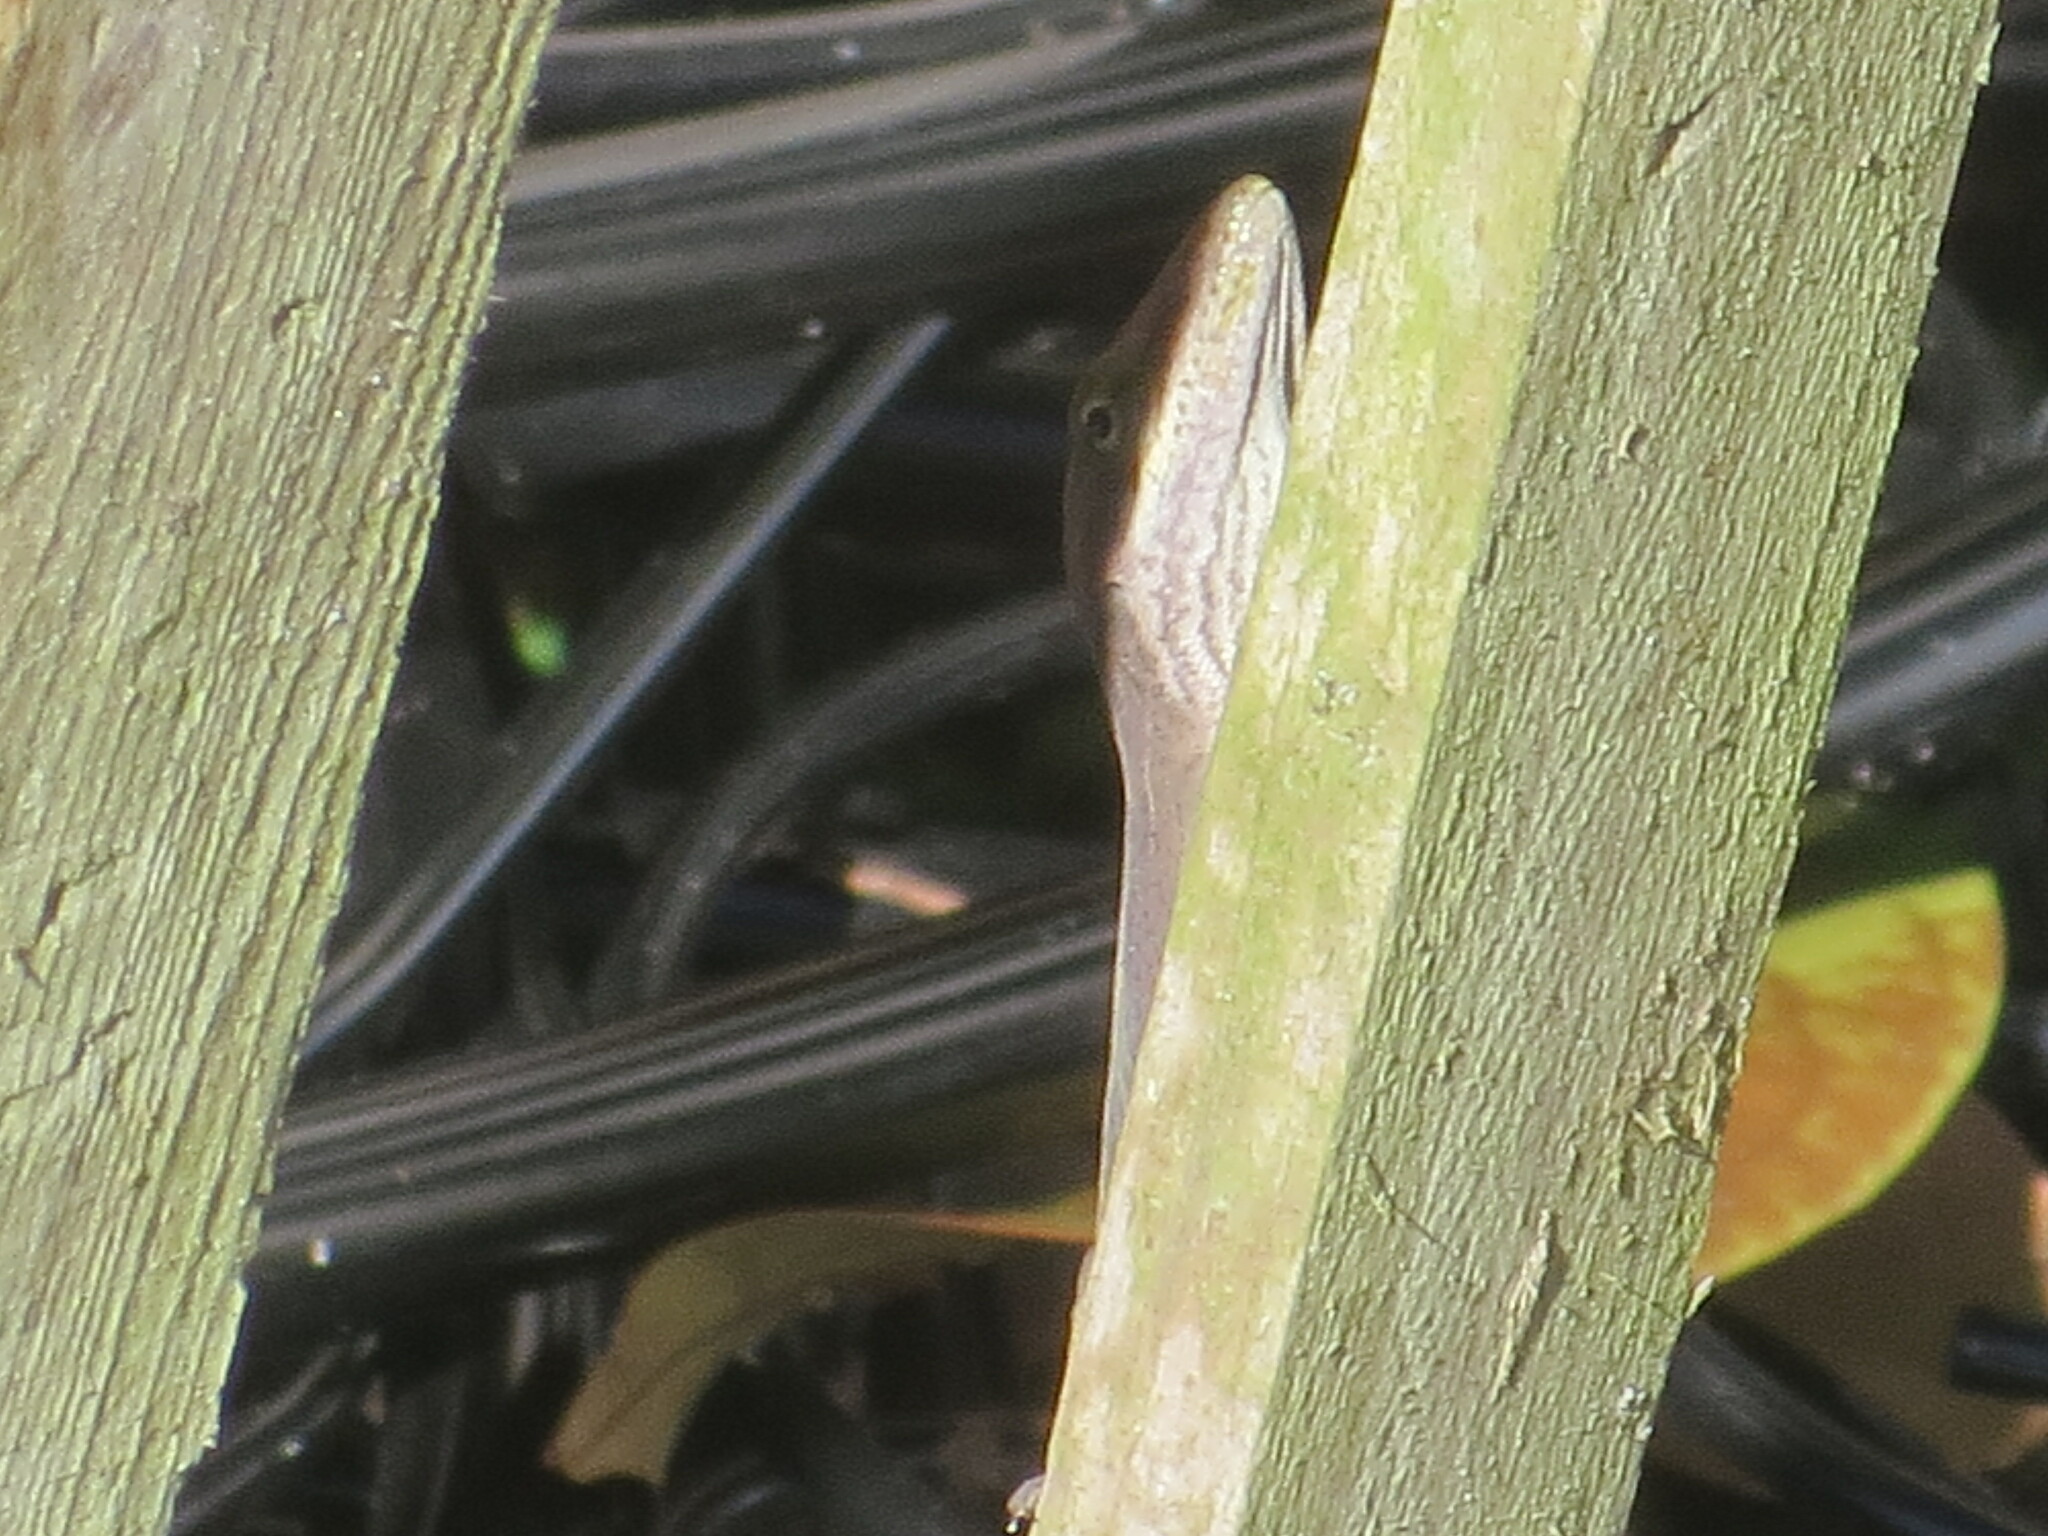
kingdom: Animalia
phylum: Chordata
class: Squamata
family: Dactyloidae
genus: Anolis
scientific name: Anolis carolinensis
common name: Green anole
